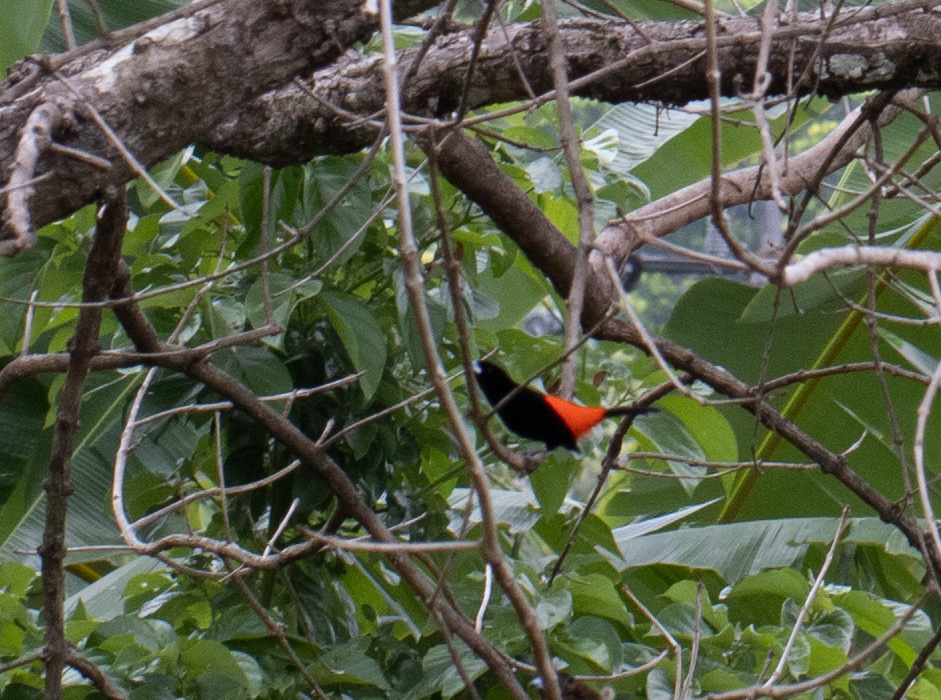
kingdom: Animalia
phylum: Chordata
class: Aves
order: Passeriformes
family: Thraupidae
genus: Ramphocelus
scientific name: Ramphocelus passerinii
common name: Passerini's tanager
